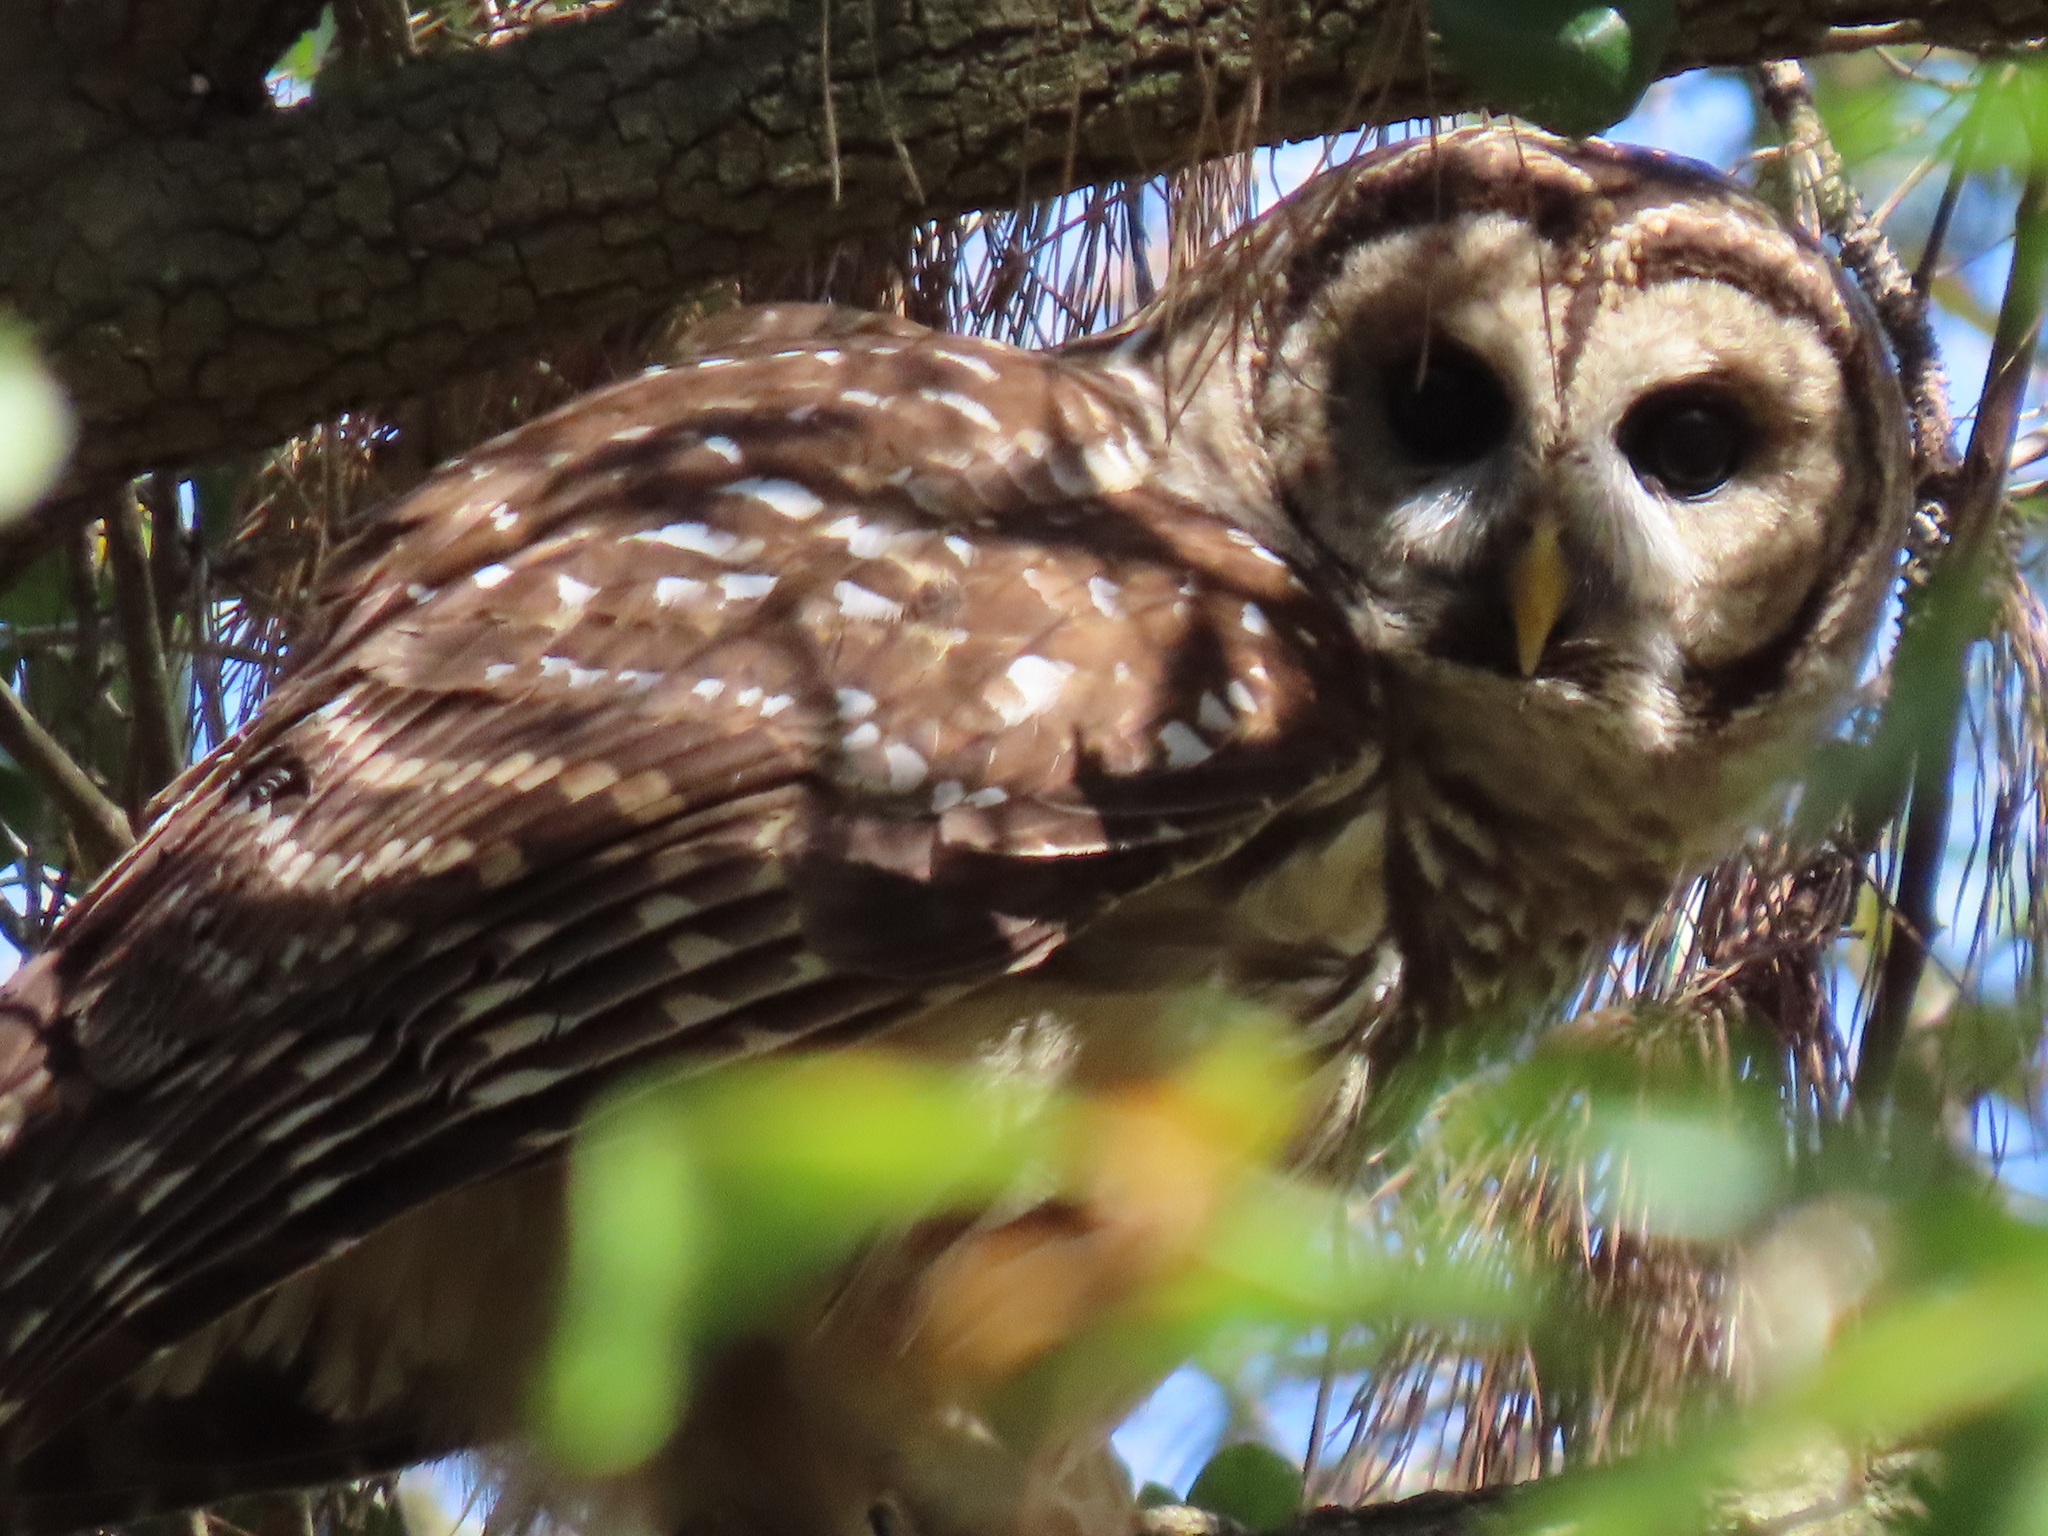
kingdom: Animalia
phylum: Chordata
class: Aves
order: Strigiformes
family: Strigidae
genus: Strix
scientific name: Strix varia
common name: Barred owl
